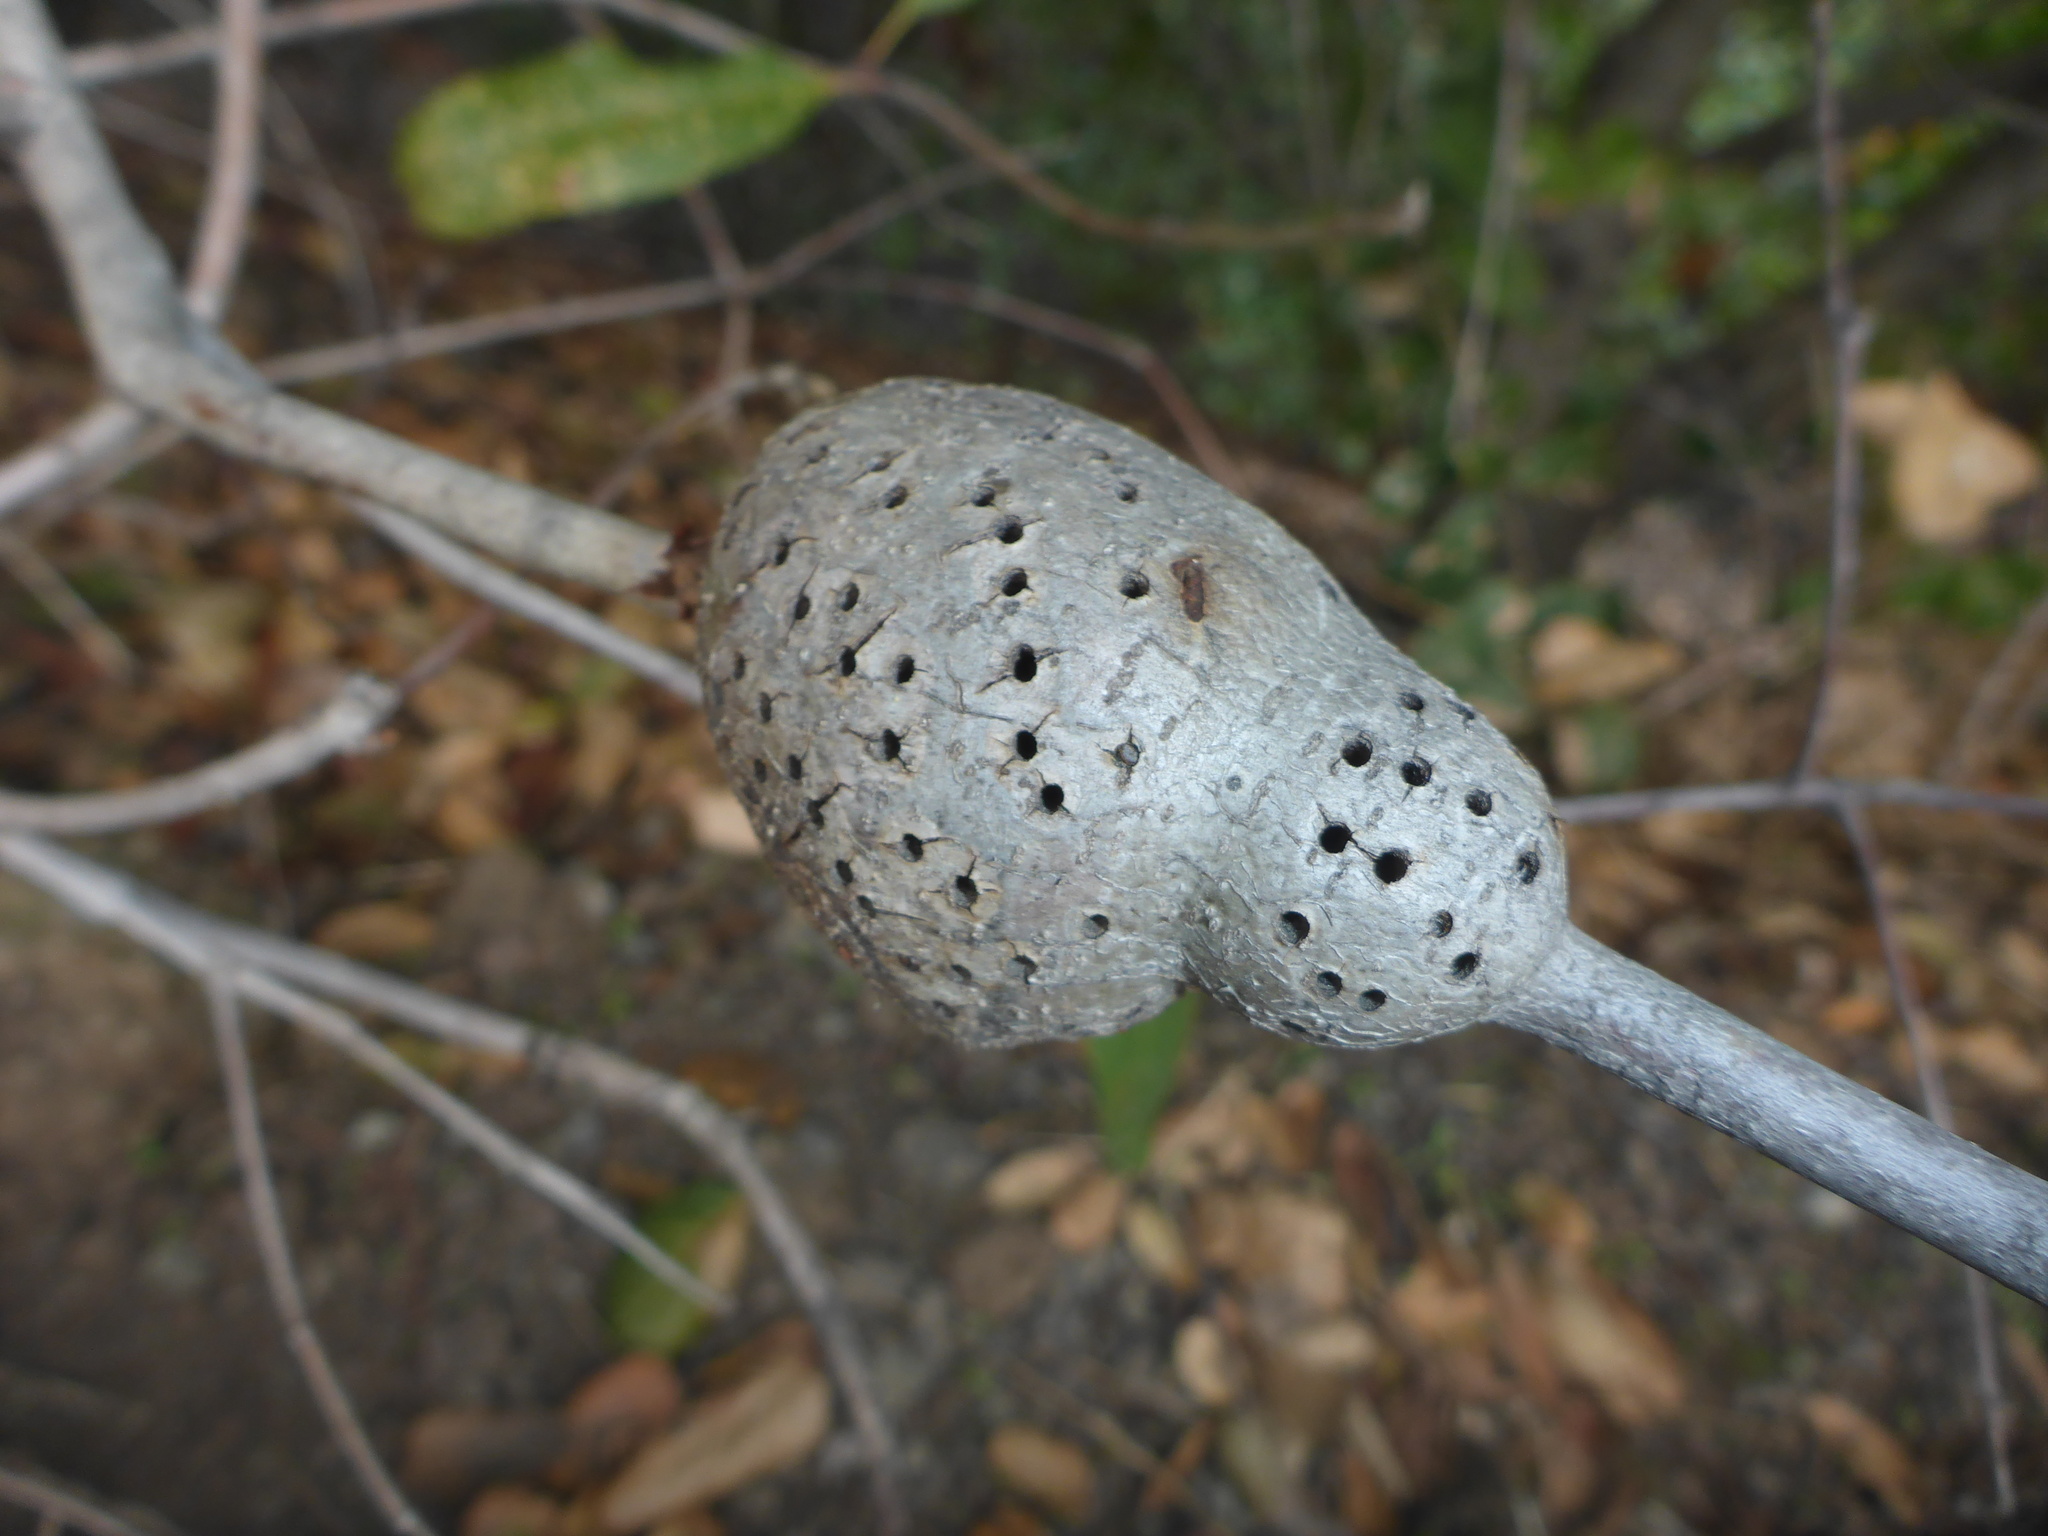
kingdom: Animalia
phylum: Arthropoda
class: Insecta
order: Hymenoptera
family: Cynipidae
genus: Callirhytis
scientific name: Callirhytis
